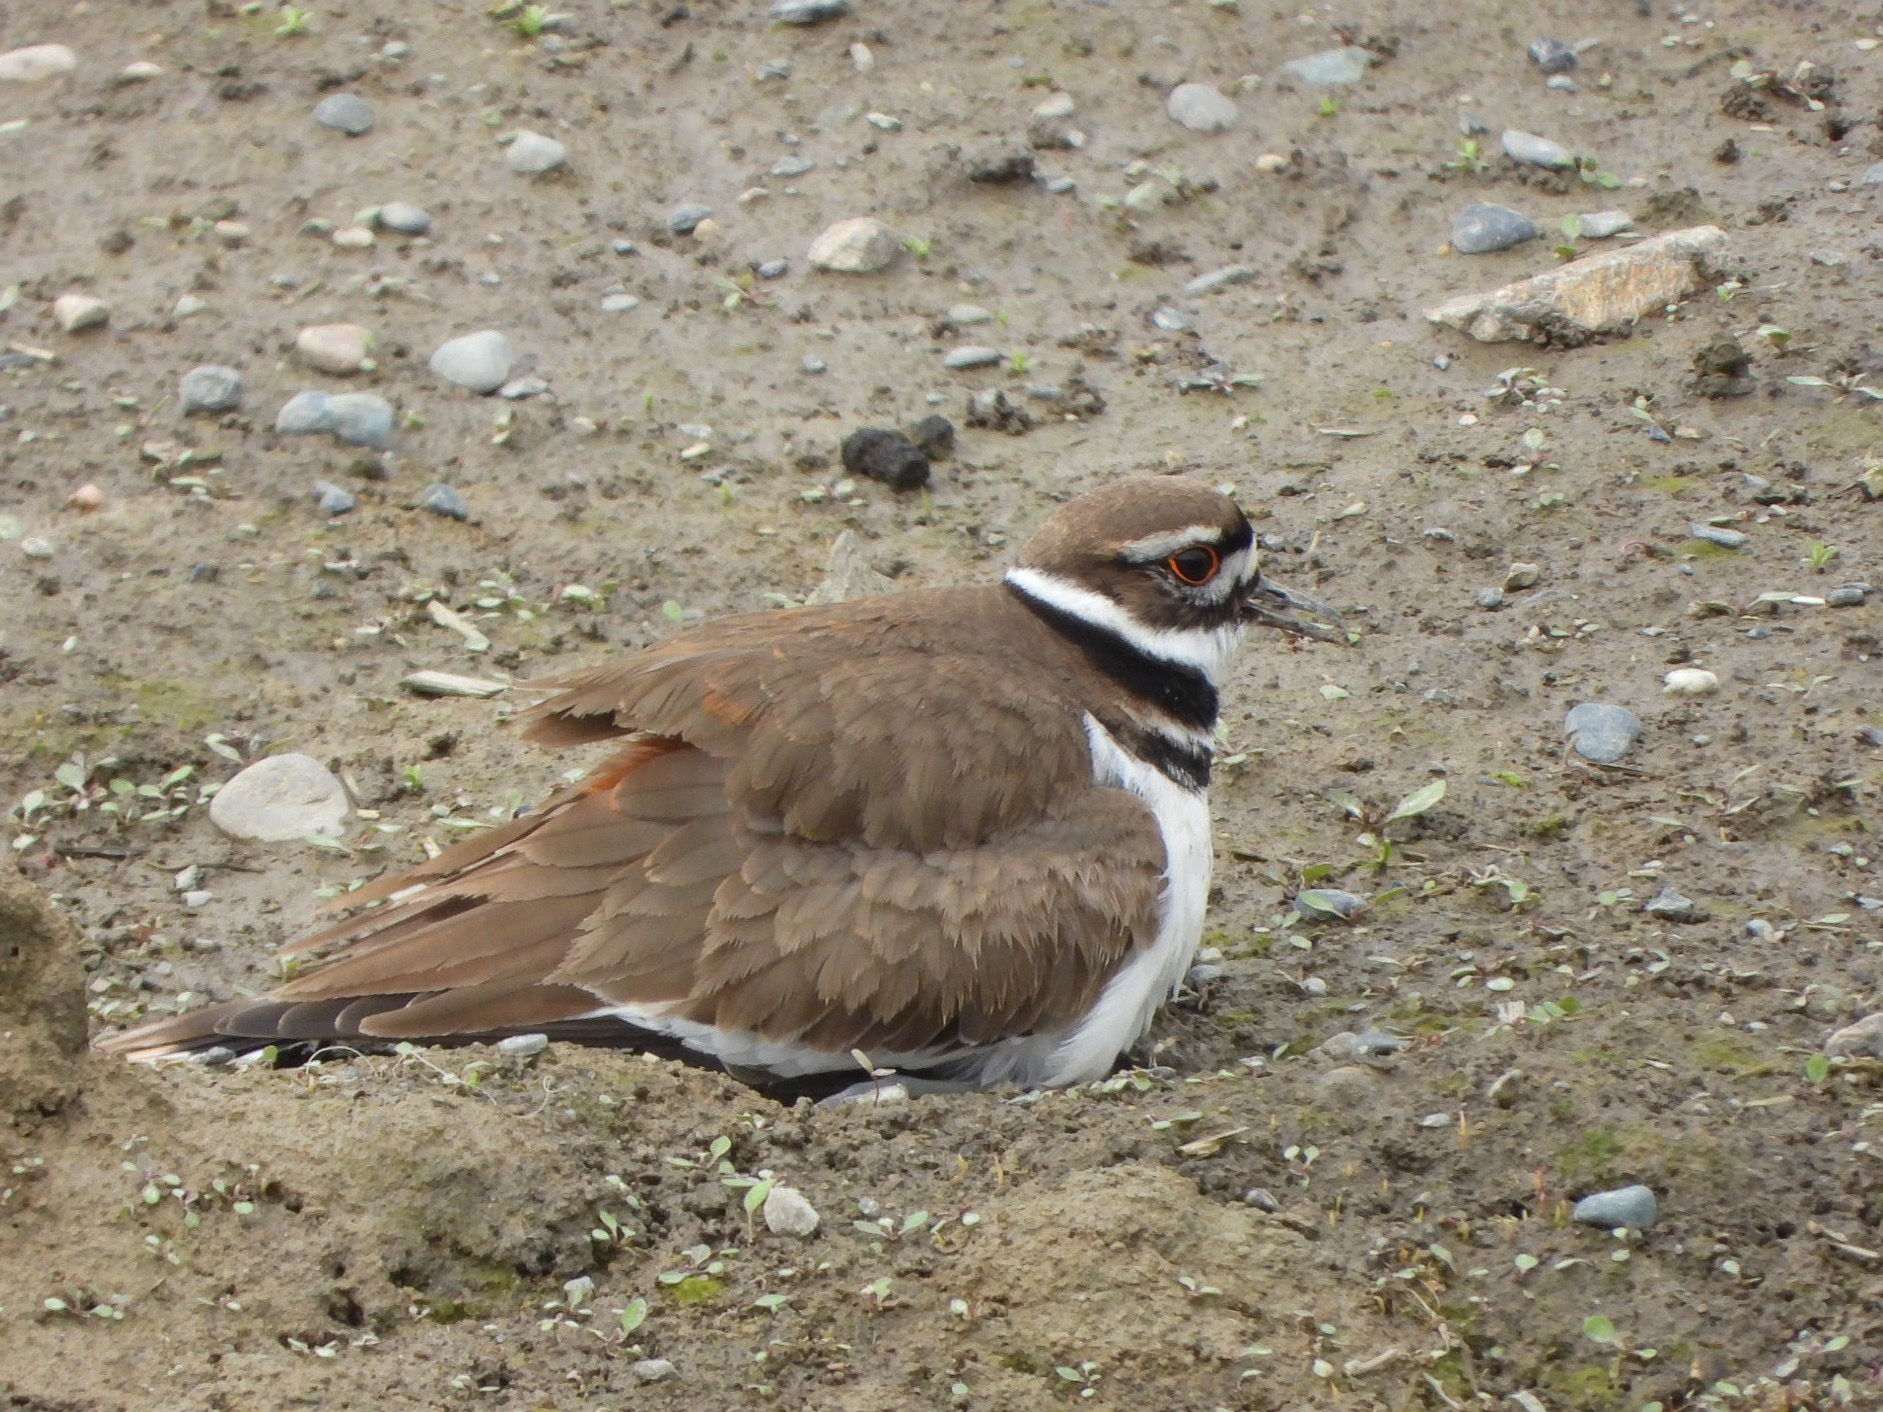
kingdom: Animalia
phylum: Chordata
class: Aves
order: Charadriiformes
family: Charadriidae
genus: Charadrius
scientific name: Charadrius vociferus
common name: Killdeer
